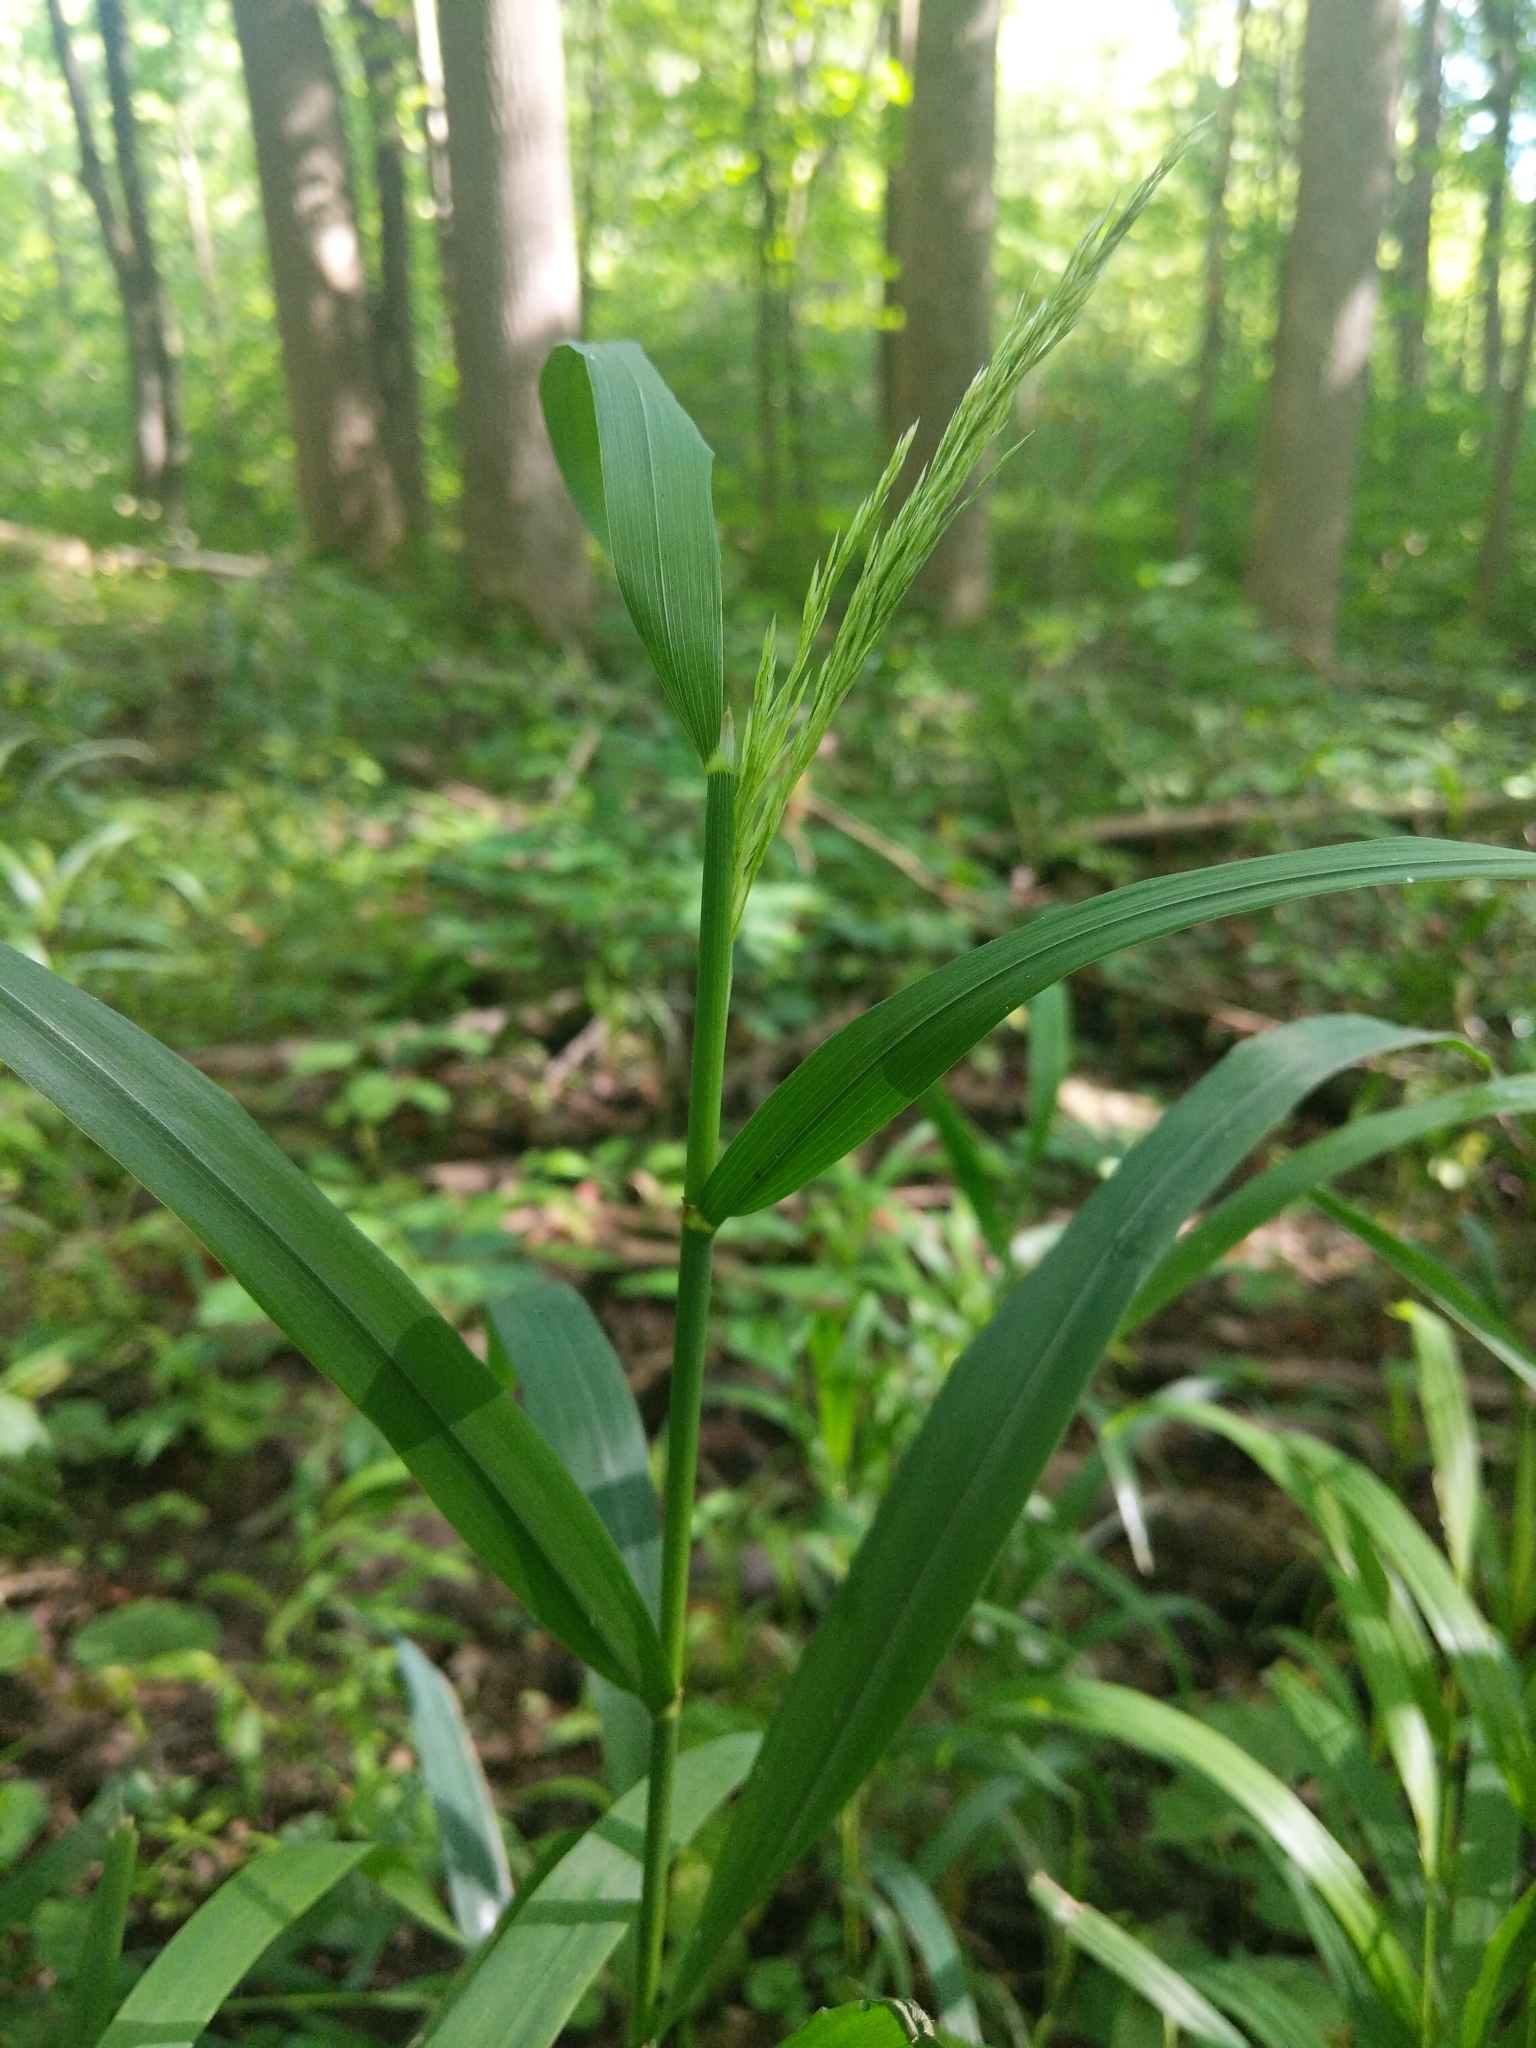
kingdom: Plantae
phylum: Tracheophyta
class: Liliopsida
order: Poales
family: Poaceae
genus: Cinna
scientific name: Cinna arundinacea
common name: Stout woodreed
